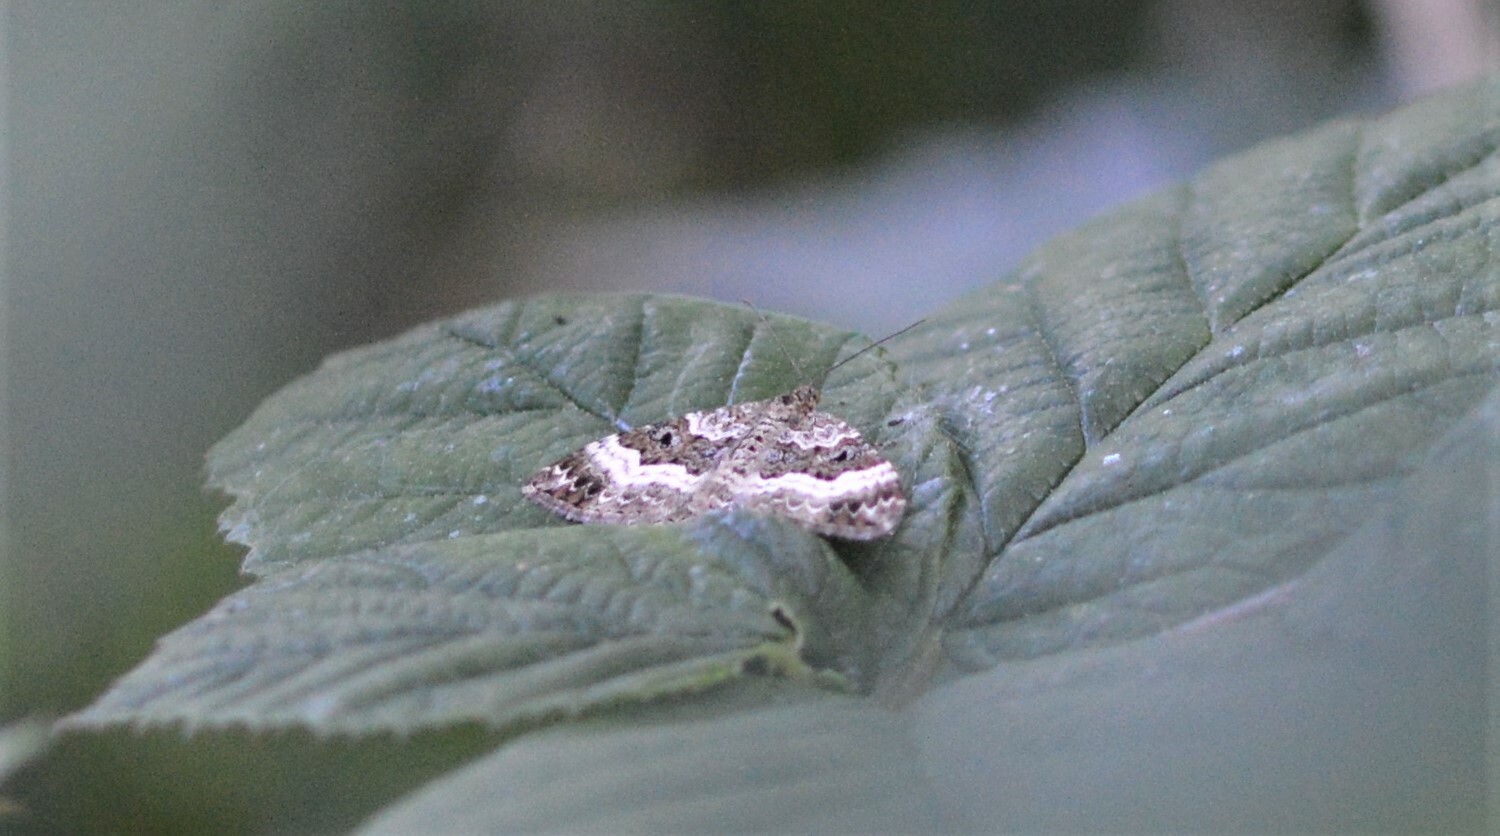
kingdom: Animalia
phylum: Arthropoda
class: Insecta
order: Lepidoptera
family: Geometridae
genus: Epirrhoe
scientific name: Epirrhoe alternata
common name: Common carpet
